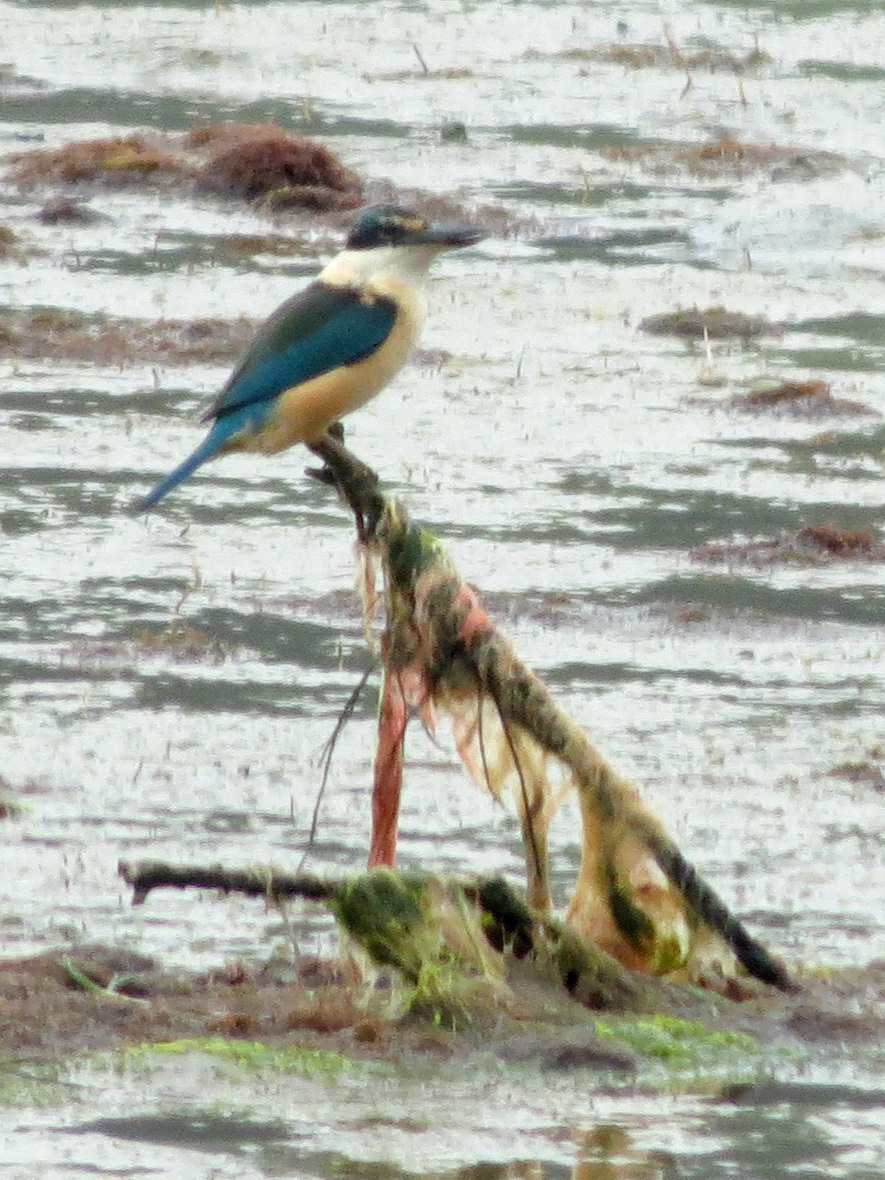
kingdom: Animalia
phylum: Chordata
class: Aves
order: Coraciiformes
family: Alcedinidae
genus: Todiramphus
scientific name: Todiramphus sanctus
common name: Sacred kingfisher
